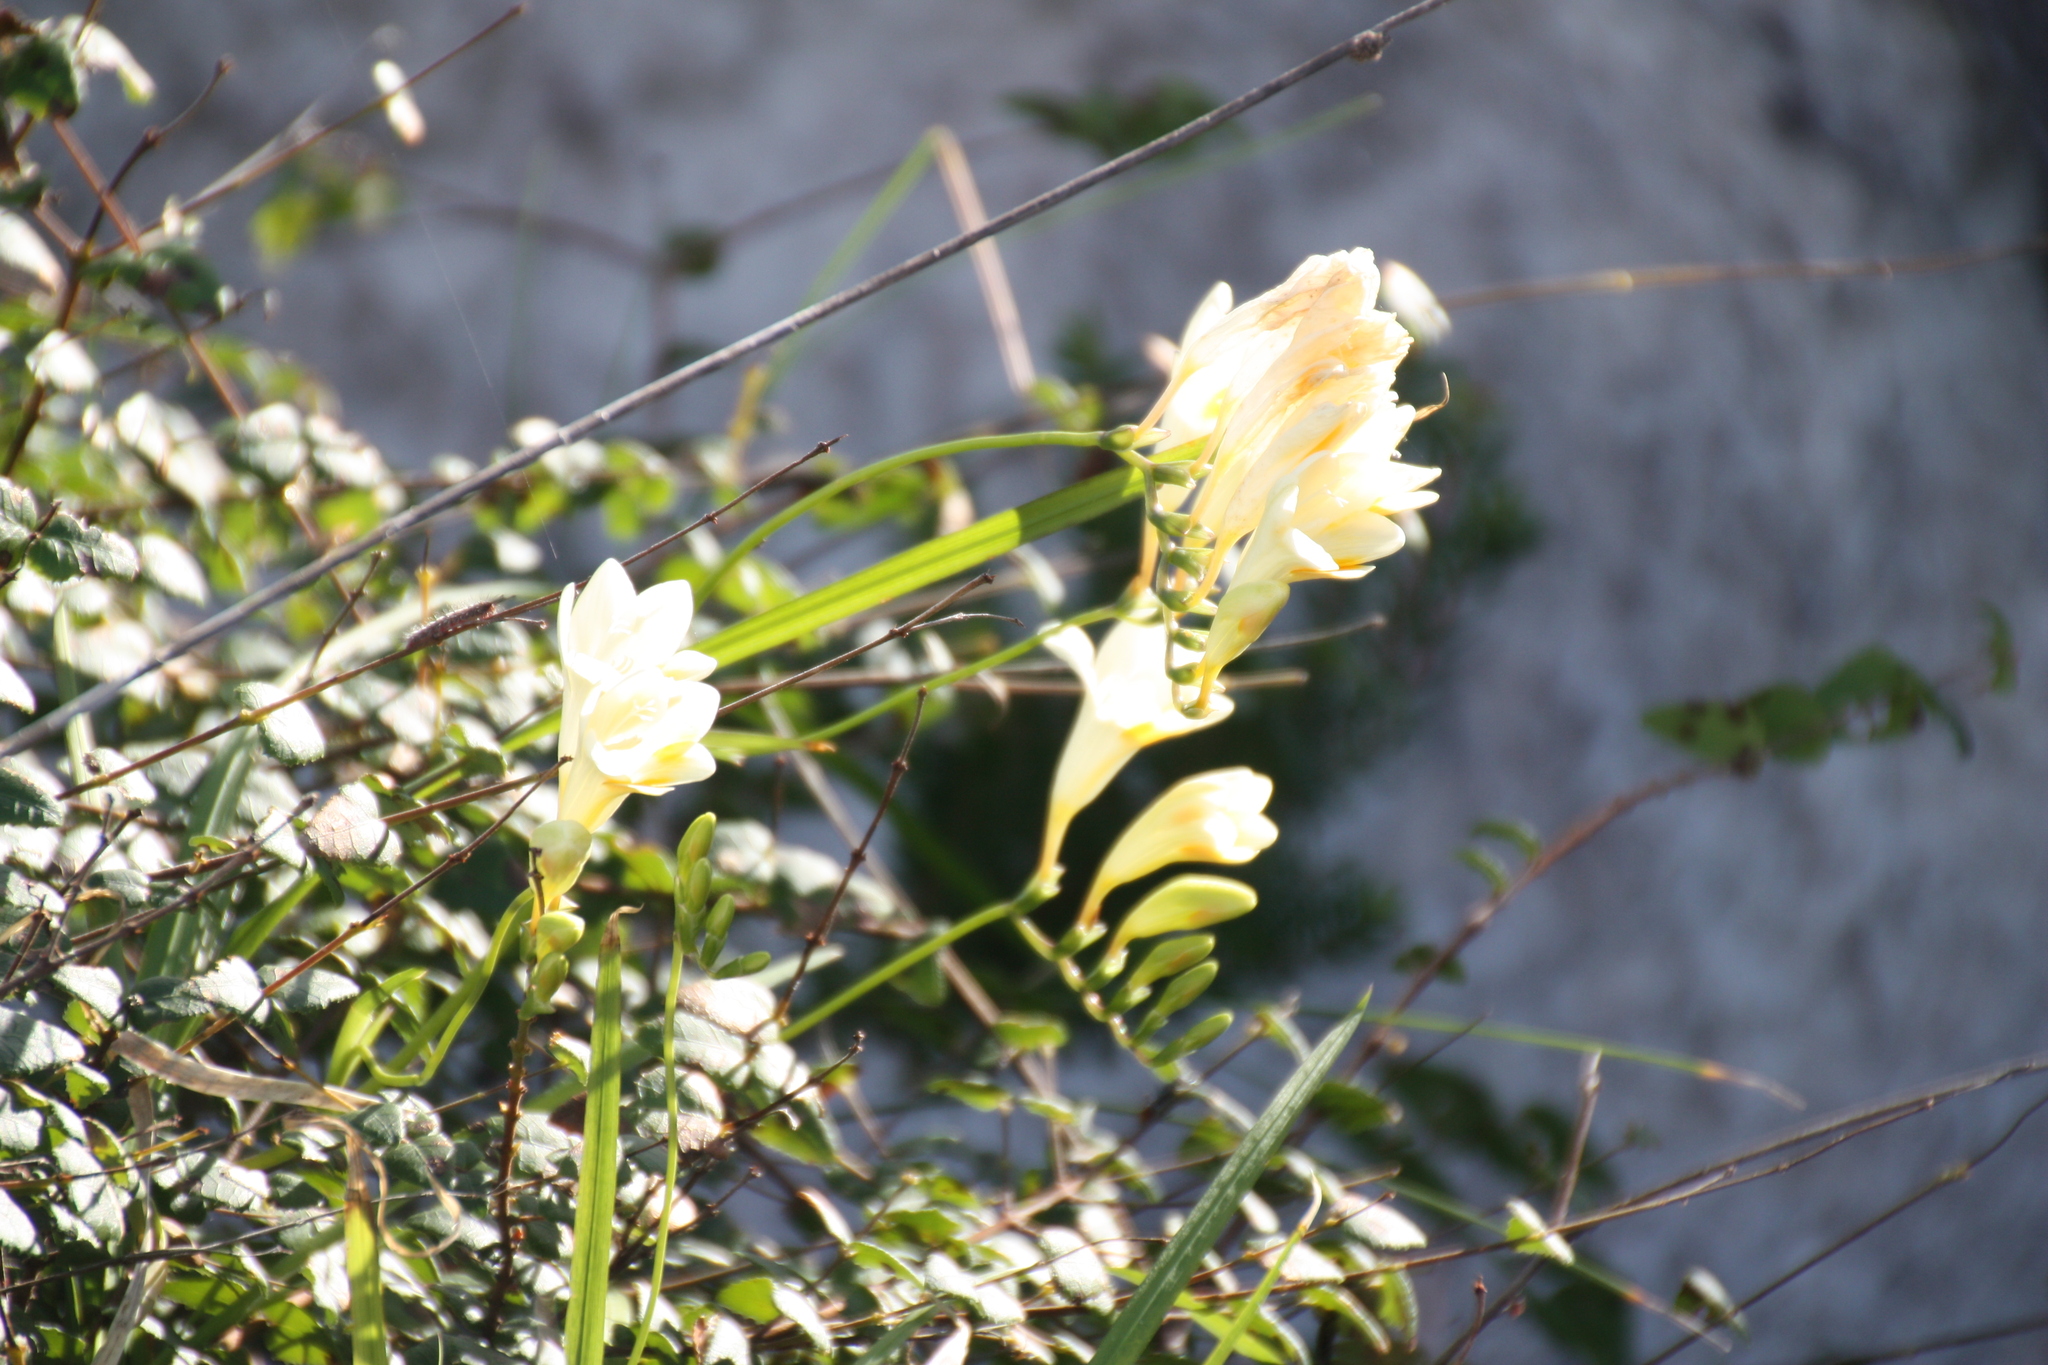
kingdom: Plantae
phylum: Tracheophyta
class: Liliopsida
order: Asparagales
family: Iridaceae
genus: Freesia
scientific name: Freesia leichtlinii
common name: Freesia
